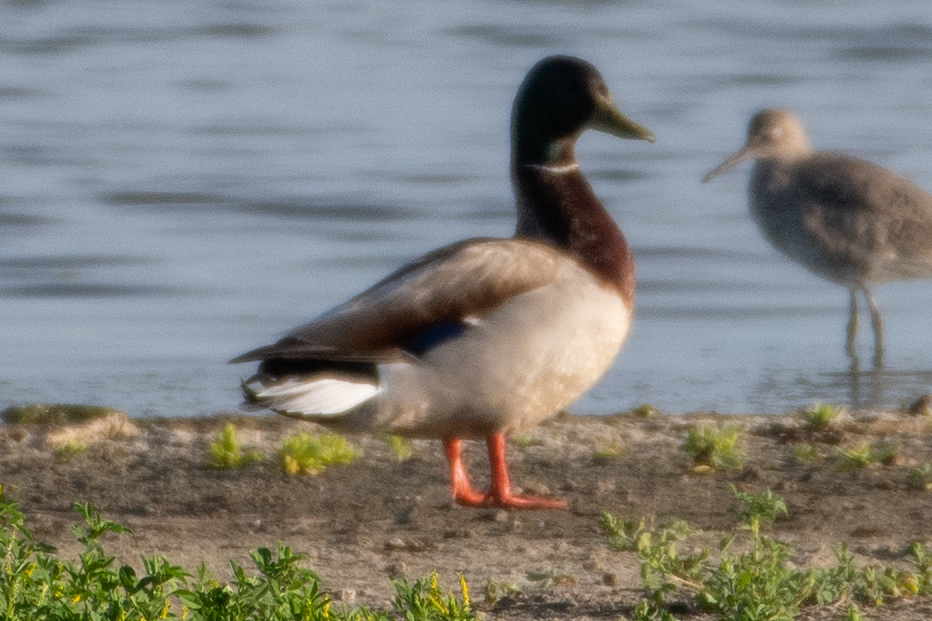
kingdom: Animalia
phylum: Chordata
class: Aves
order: Anseriformes
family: Anatidae
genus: Anas
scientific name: Anas platyrhynchos
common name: Mallard
